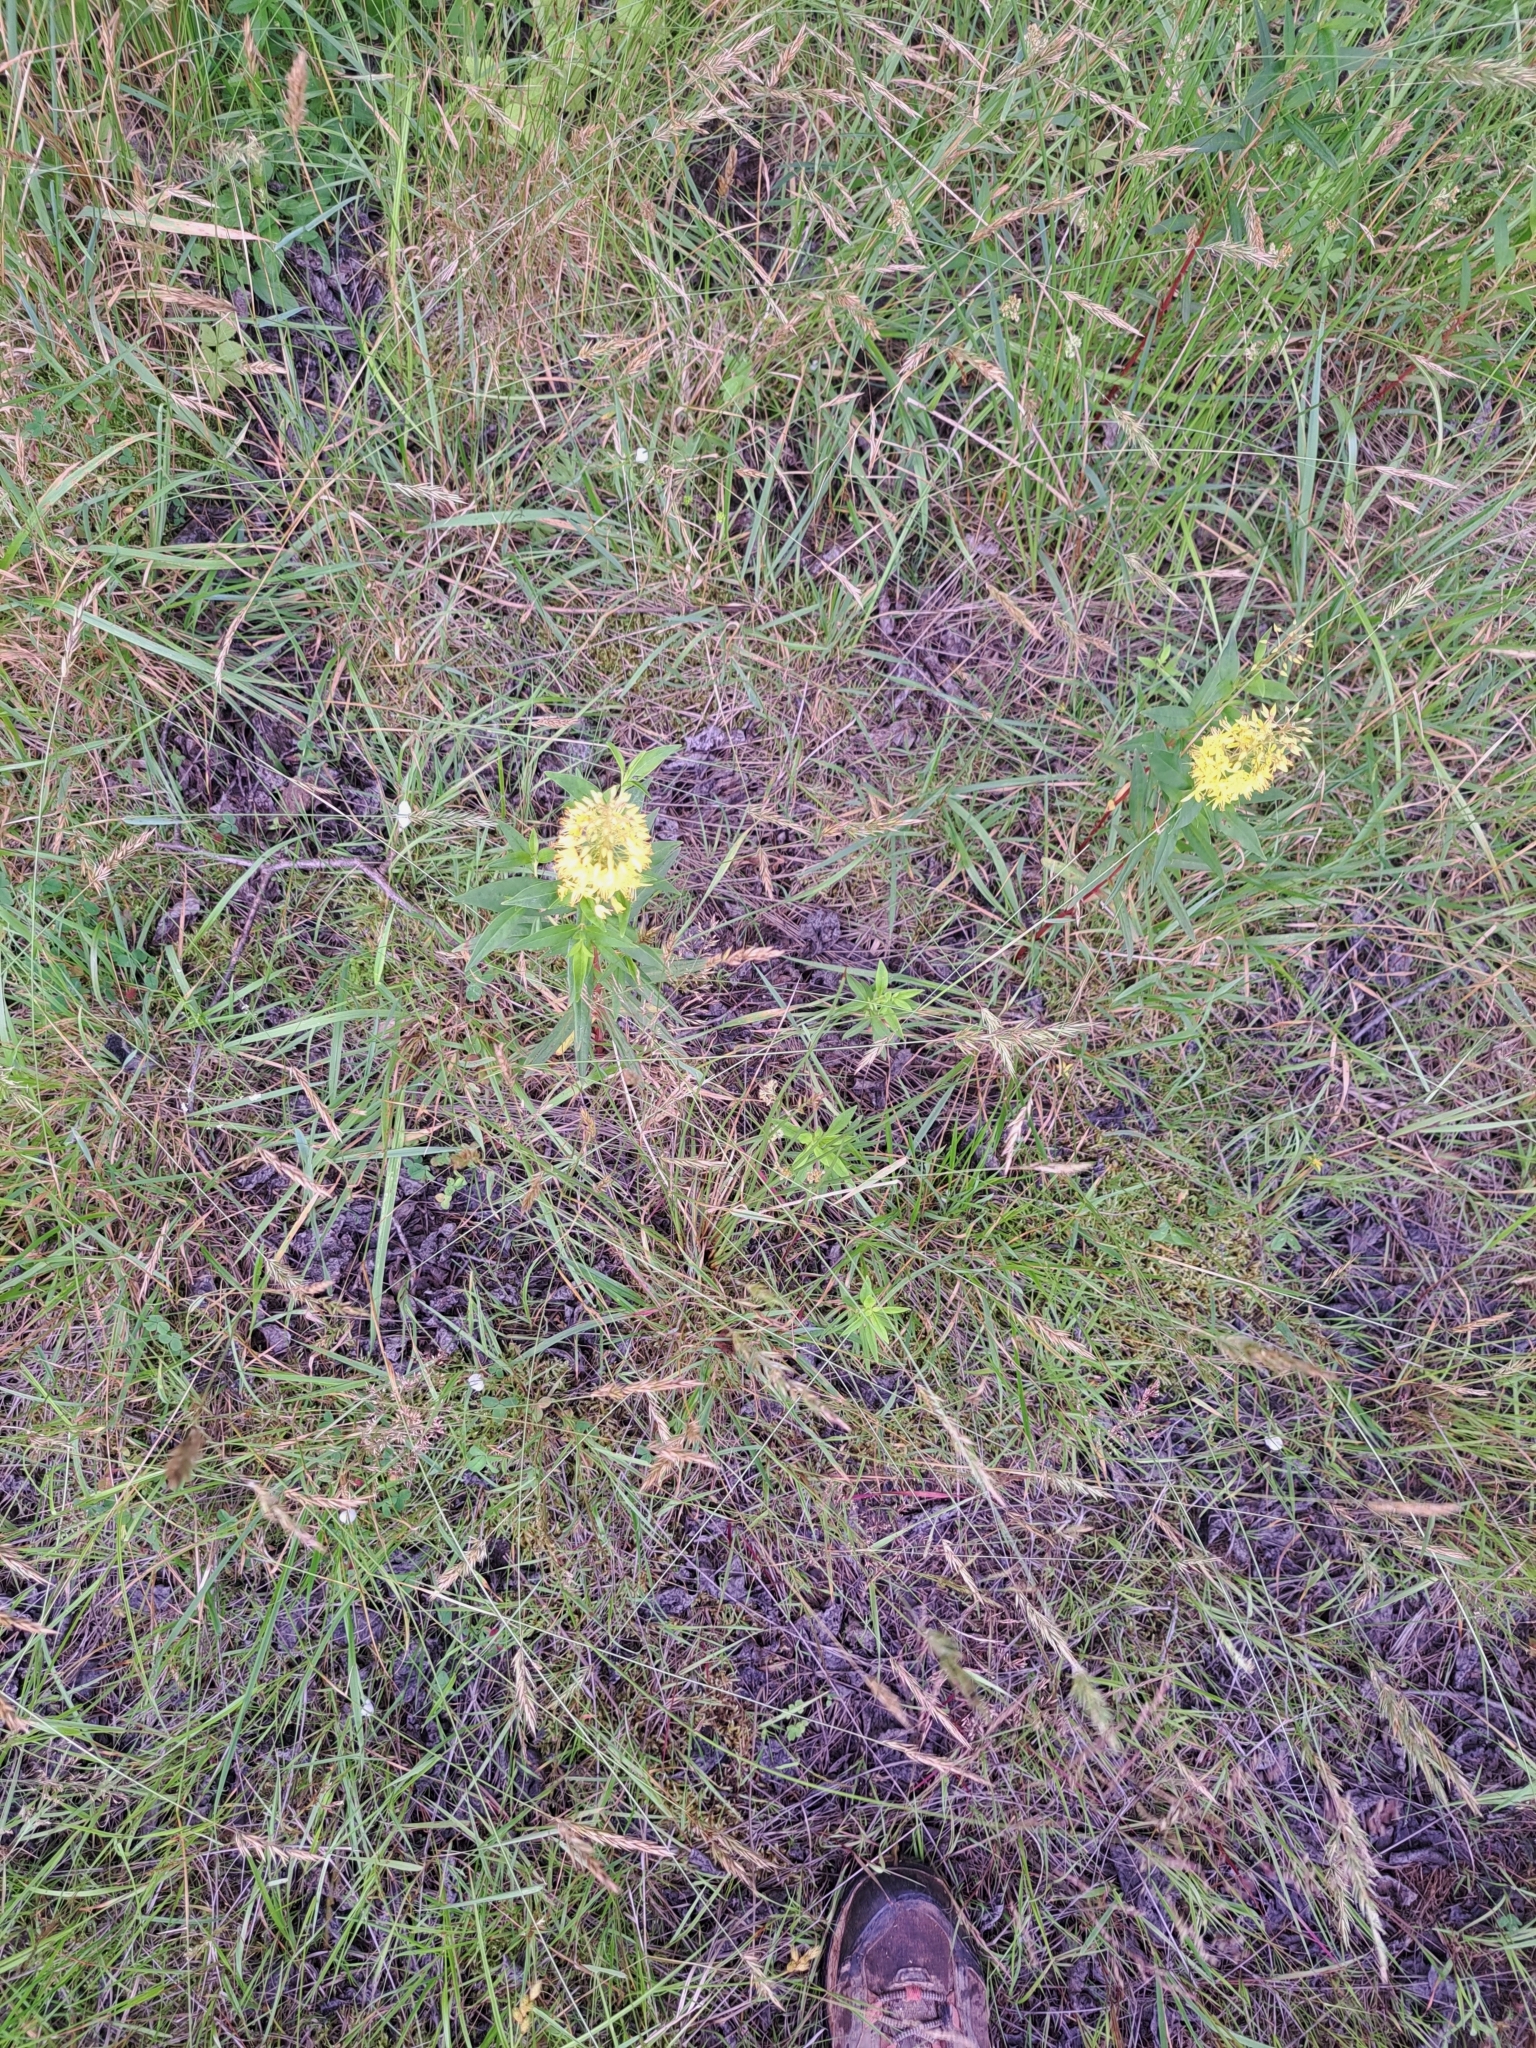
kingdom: Plantae
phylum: Tracheophyta
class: Magnoliopsida
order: Ericales
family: Primulaceae
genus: Lysimachia
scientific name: Lysimachia terrestris
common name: Lake loosestrife
